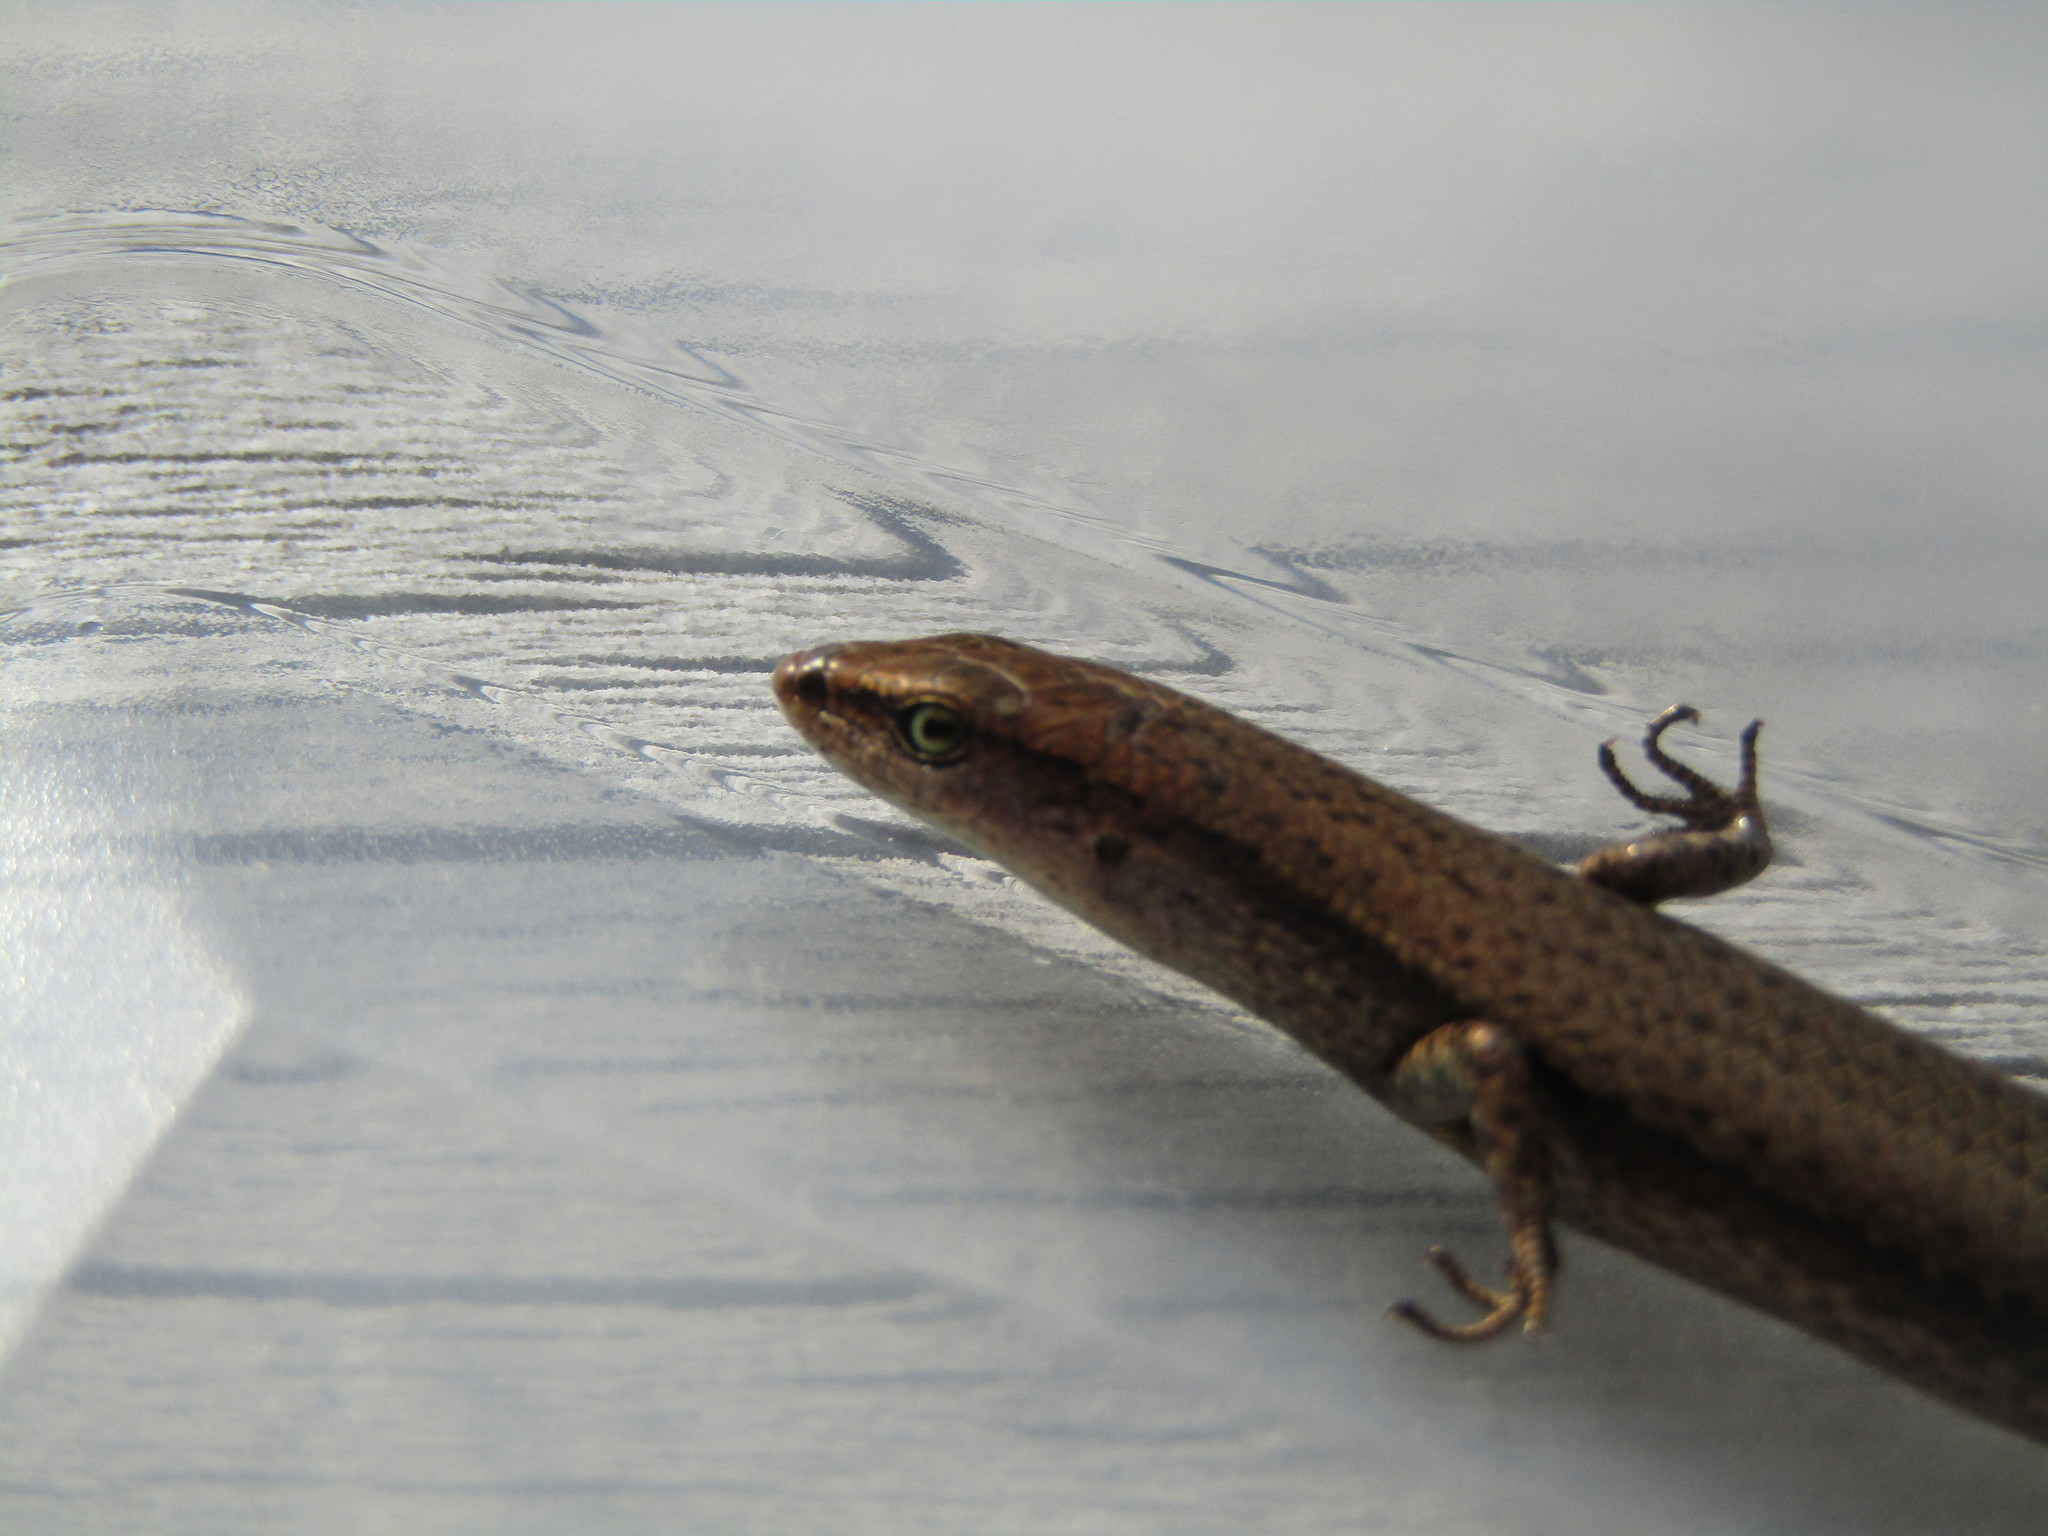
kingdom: Animalia
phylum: Chordata
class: Squamata
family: Scincidae
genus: Lampropholis
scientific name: Lampropholis delicata
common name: Plague skink
